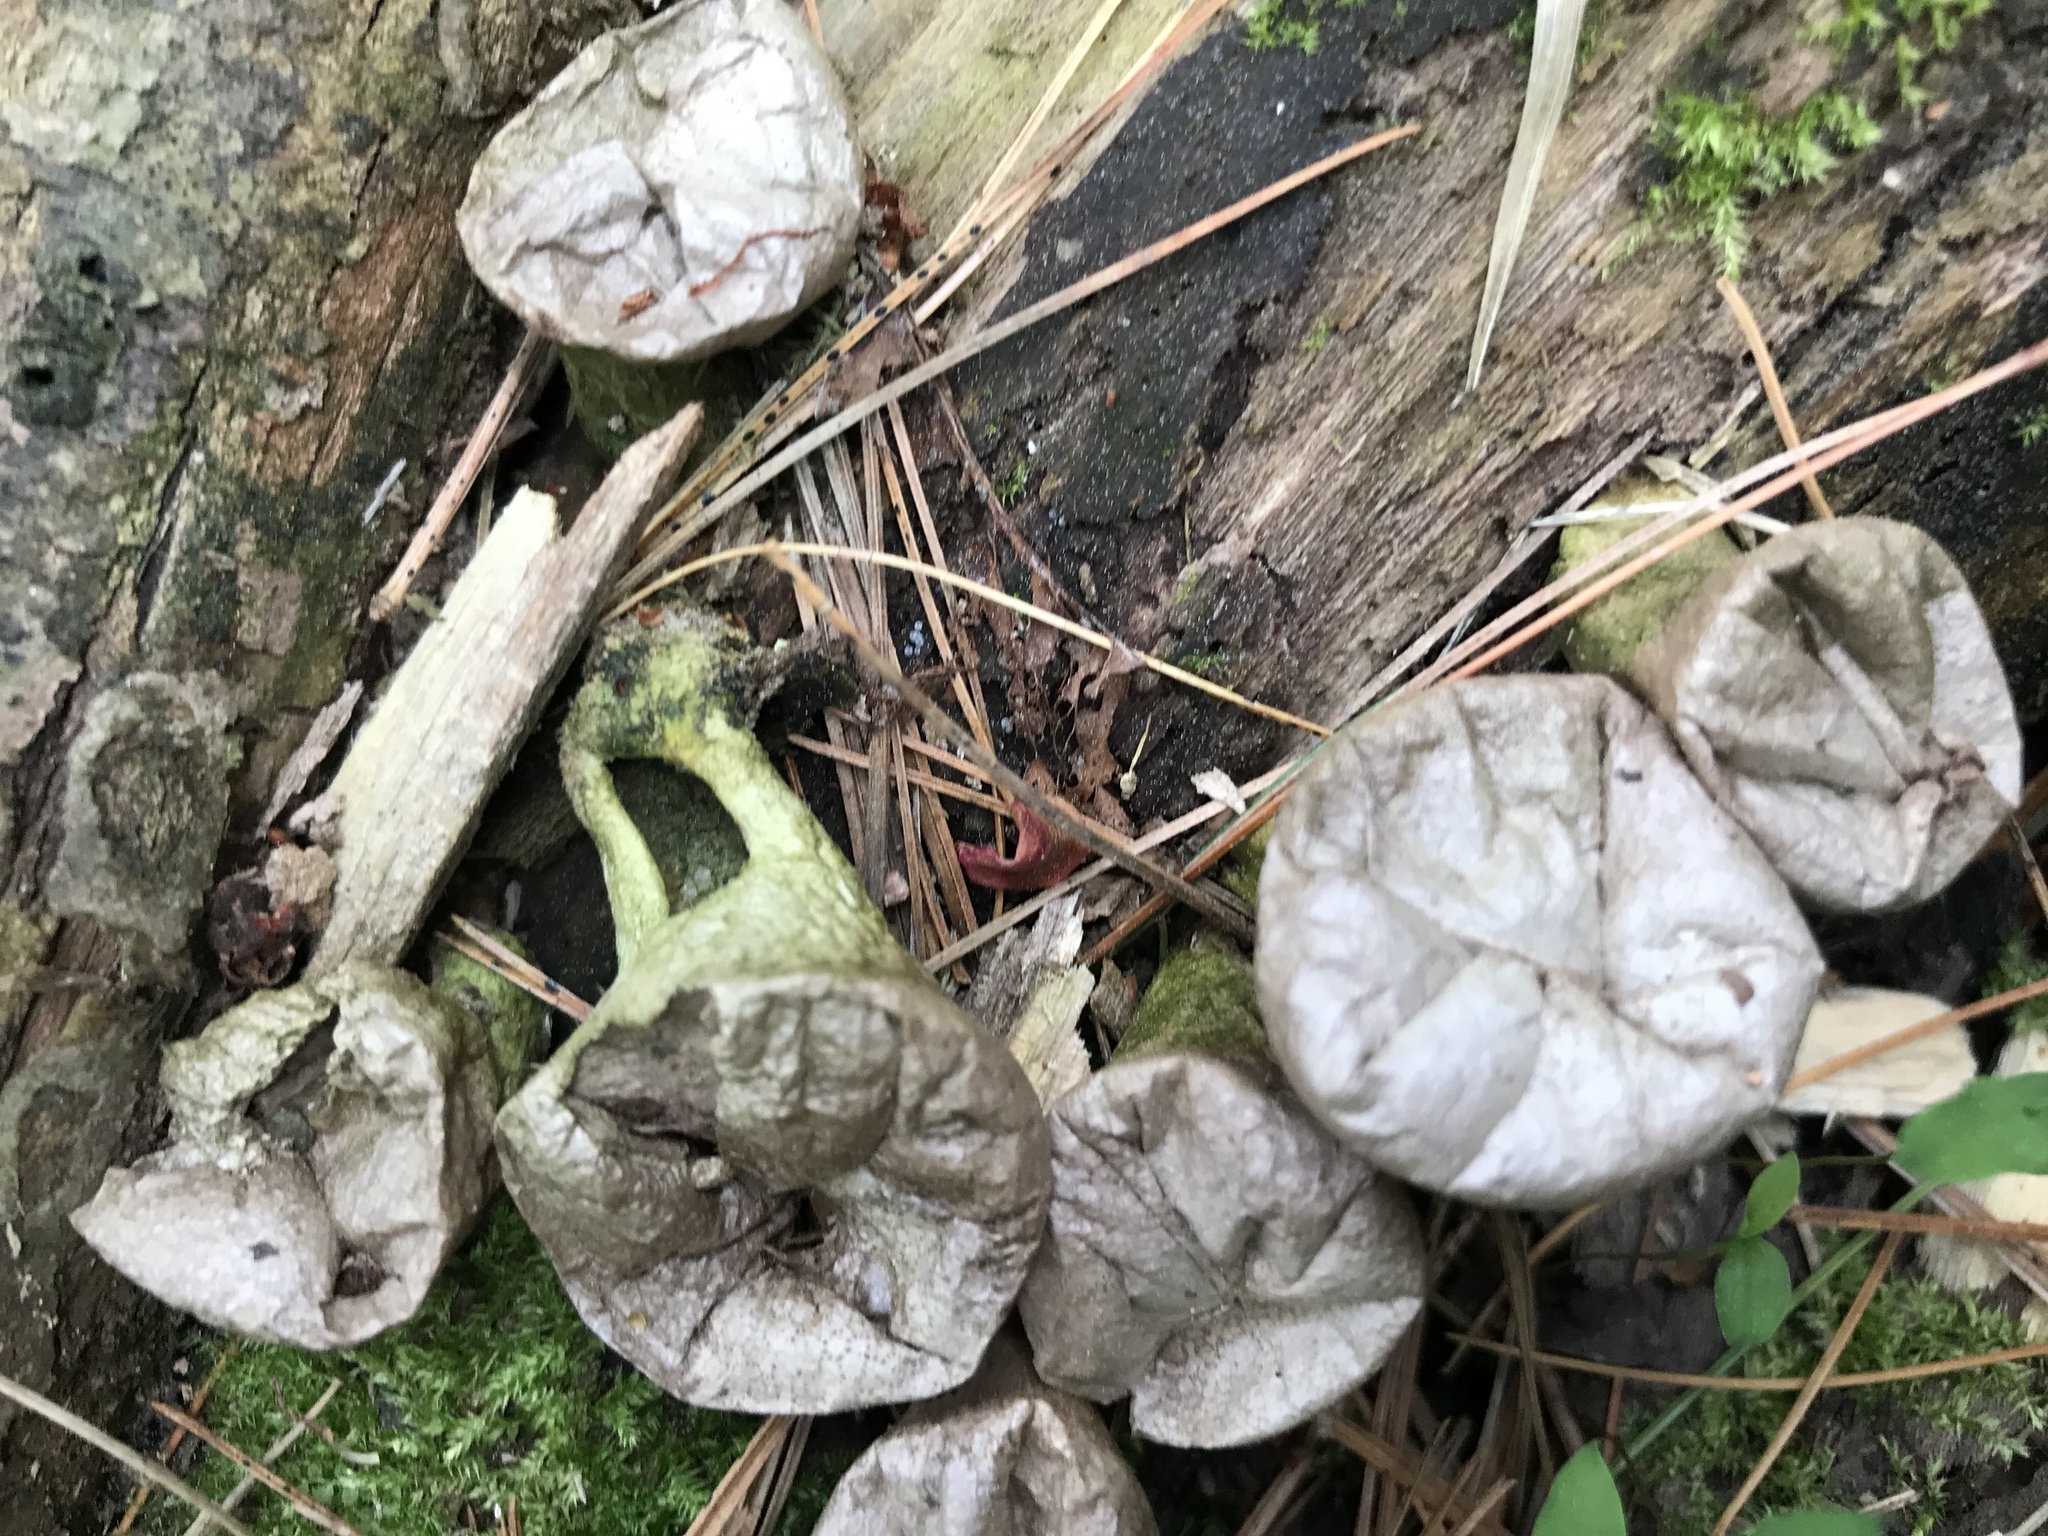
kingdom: Fungi
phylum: Basidiomycota
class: Agaricomycetes
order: Agaricales
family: Lycoperdaceae
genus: Apioperdon
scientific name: Apioperdon pyriforme
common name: Pear-shaped puffball
